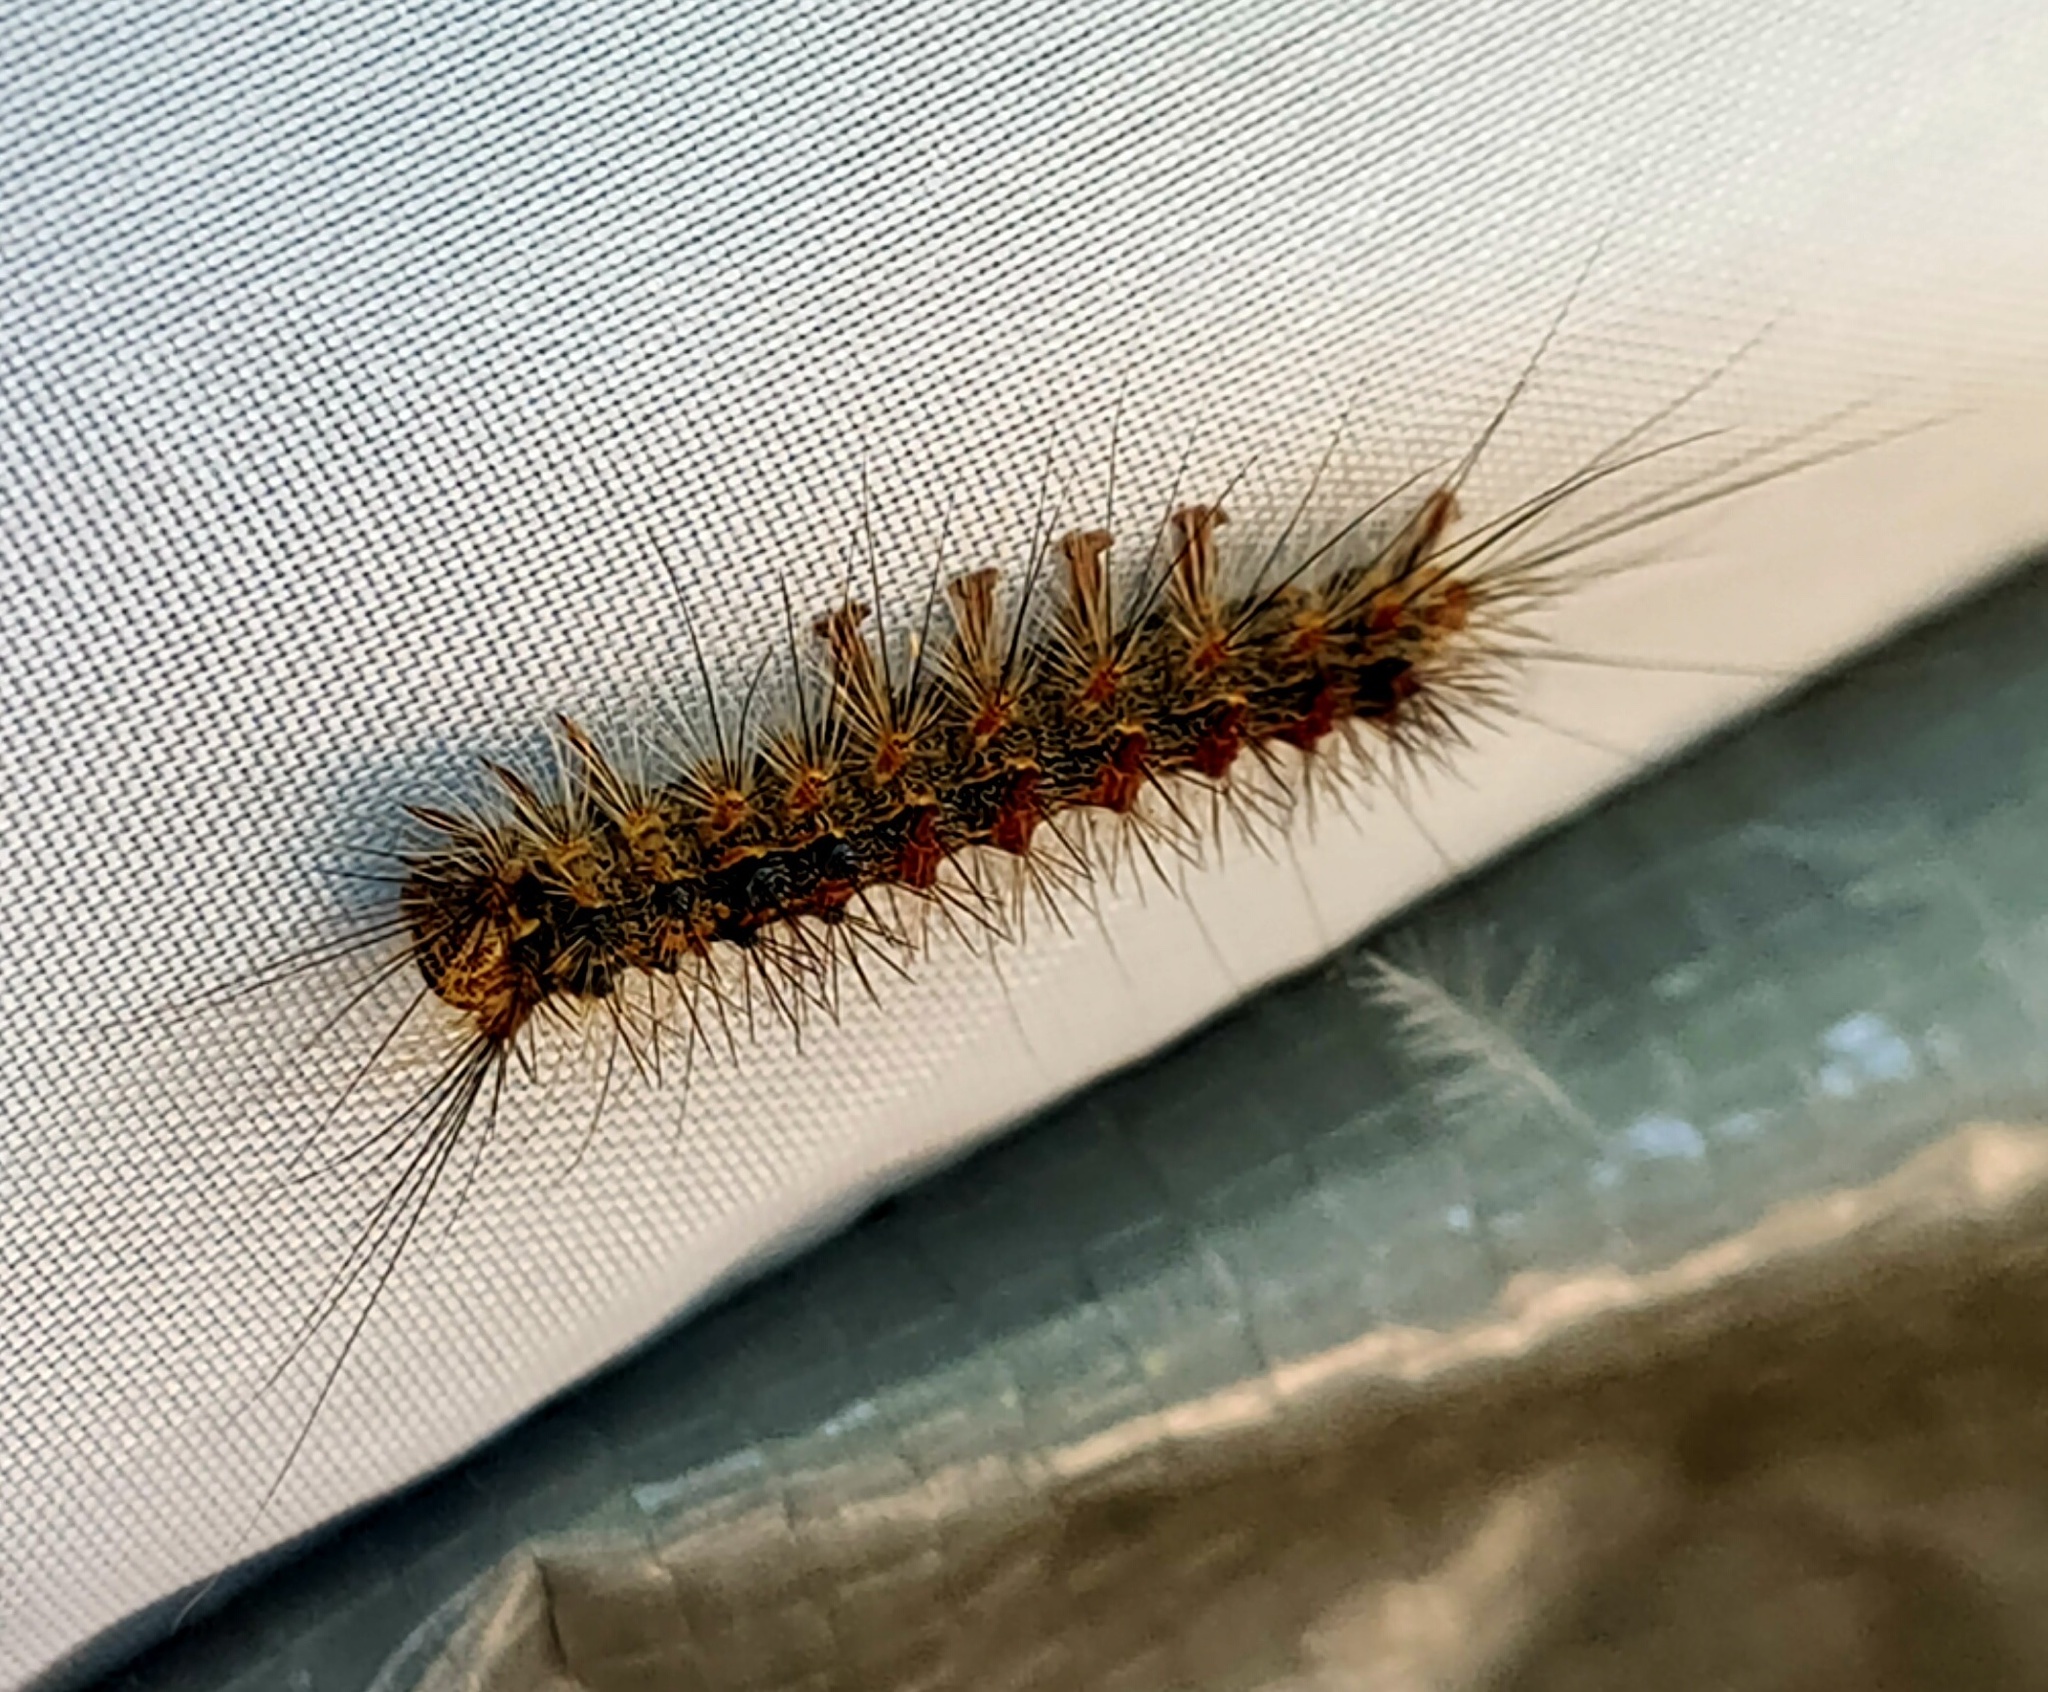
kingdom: Animalia
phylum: Arthropoda
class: Insecta
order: Lepidoptera
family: Erebidae
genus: Lymantria
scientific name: Lymantria dispar
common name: Gypsy moth
